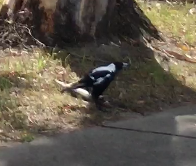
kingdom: Animalia
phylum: Chordata
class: Aves
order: Passeriformes
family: Cracticidae
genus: Gymnorhina
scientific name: Gymnorhina tibicen
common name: Australian magpie
